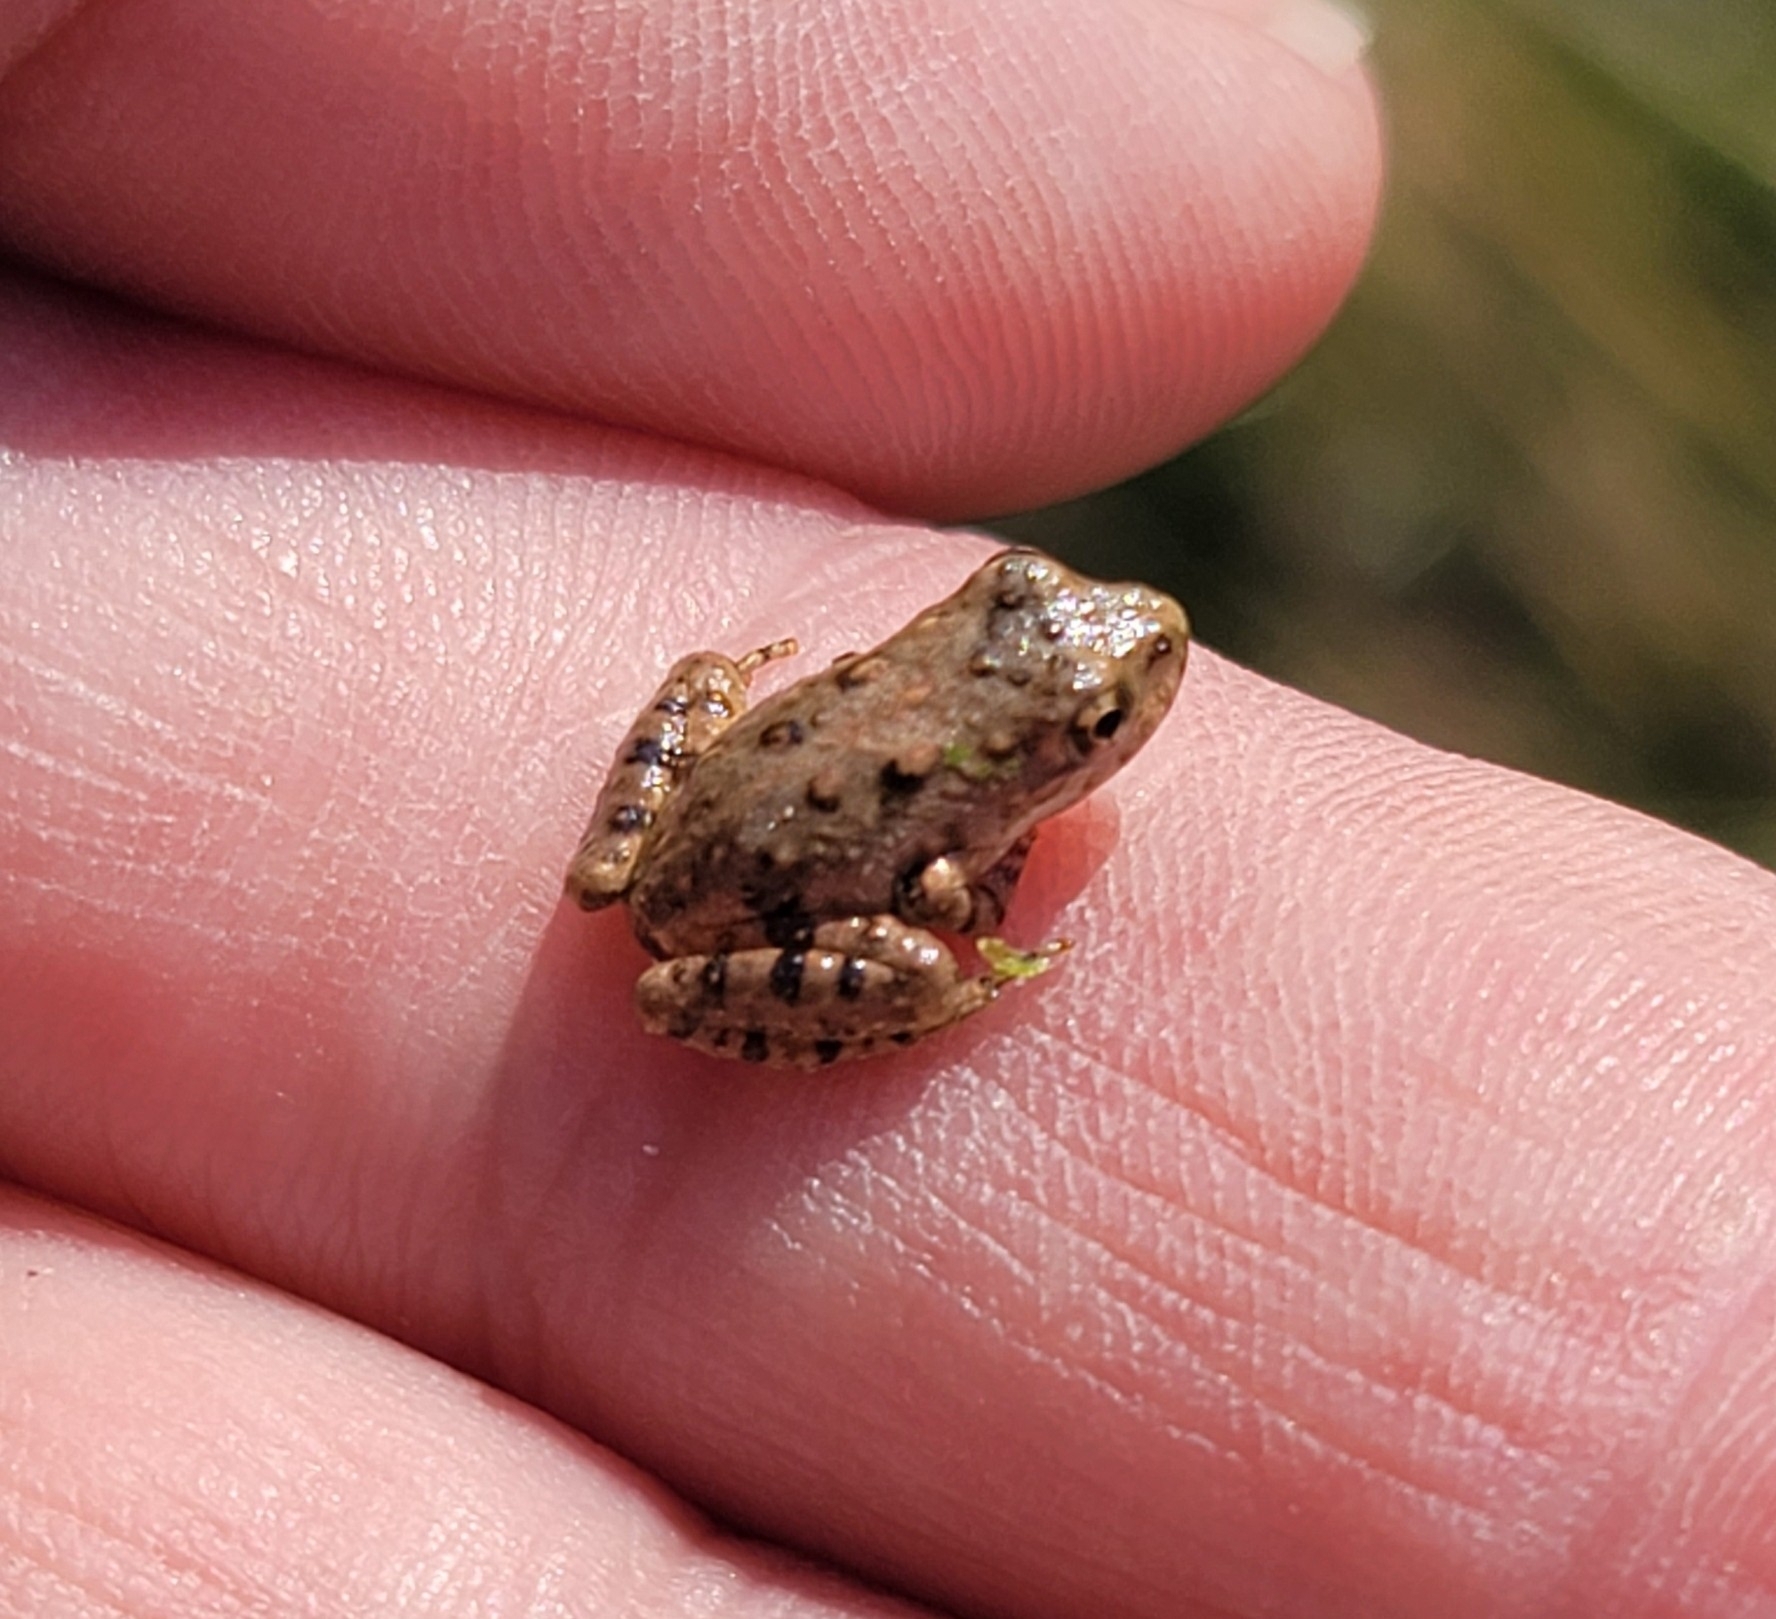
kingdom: Animalia
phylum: Chordata
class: Amphibia
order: Anura
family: Hylidae
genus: Acris
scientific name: Acris crepitans
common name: Northern cricket frog
